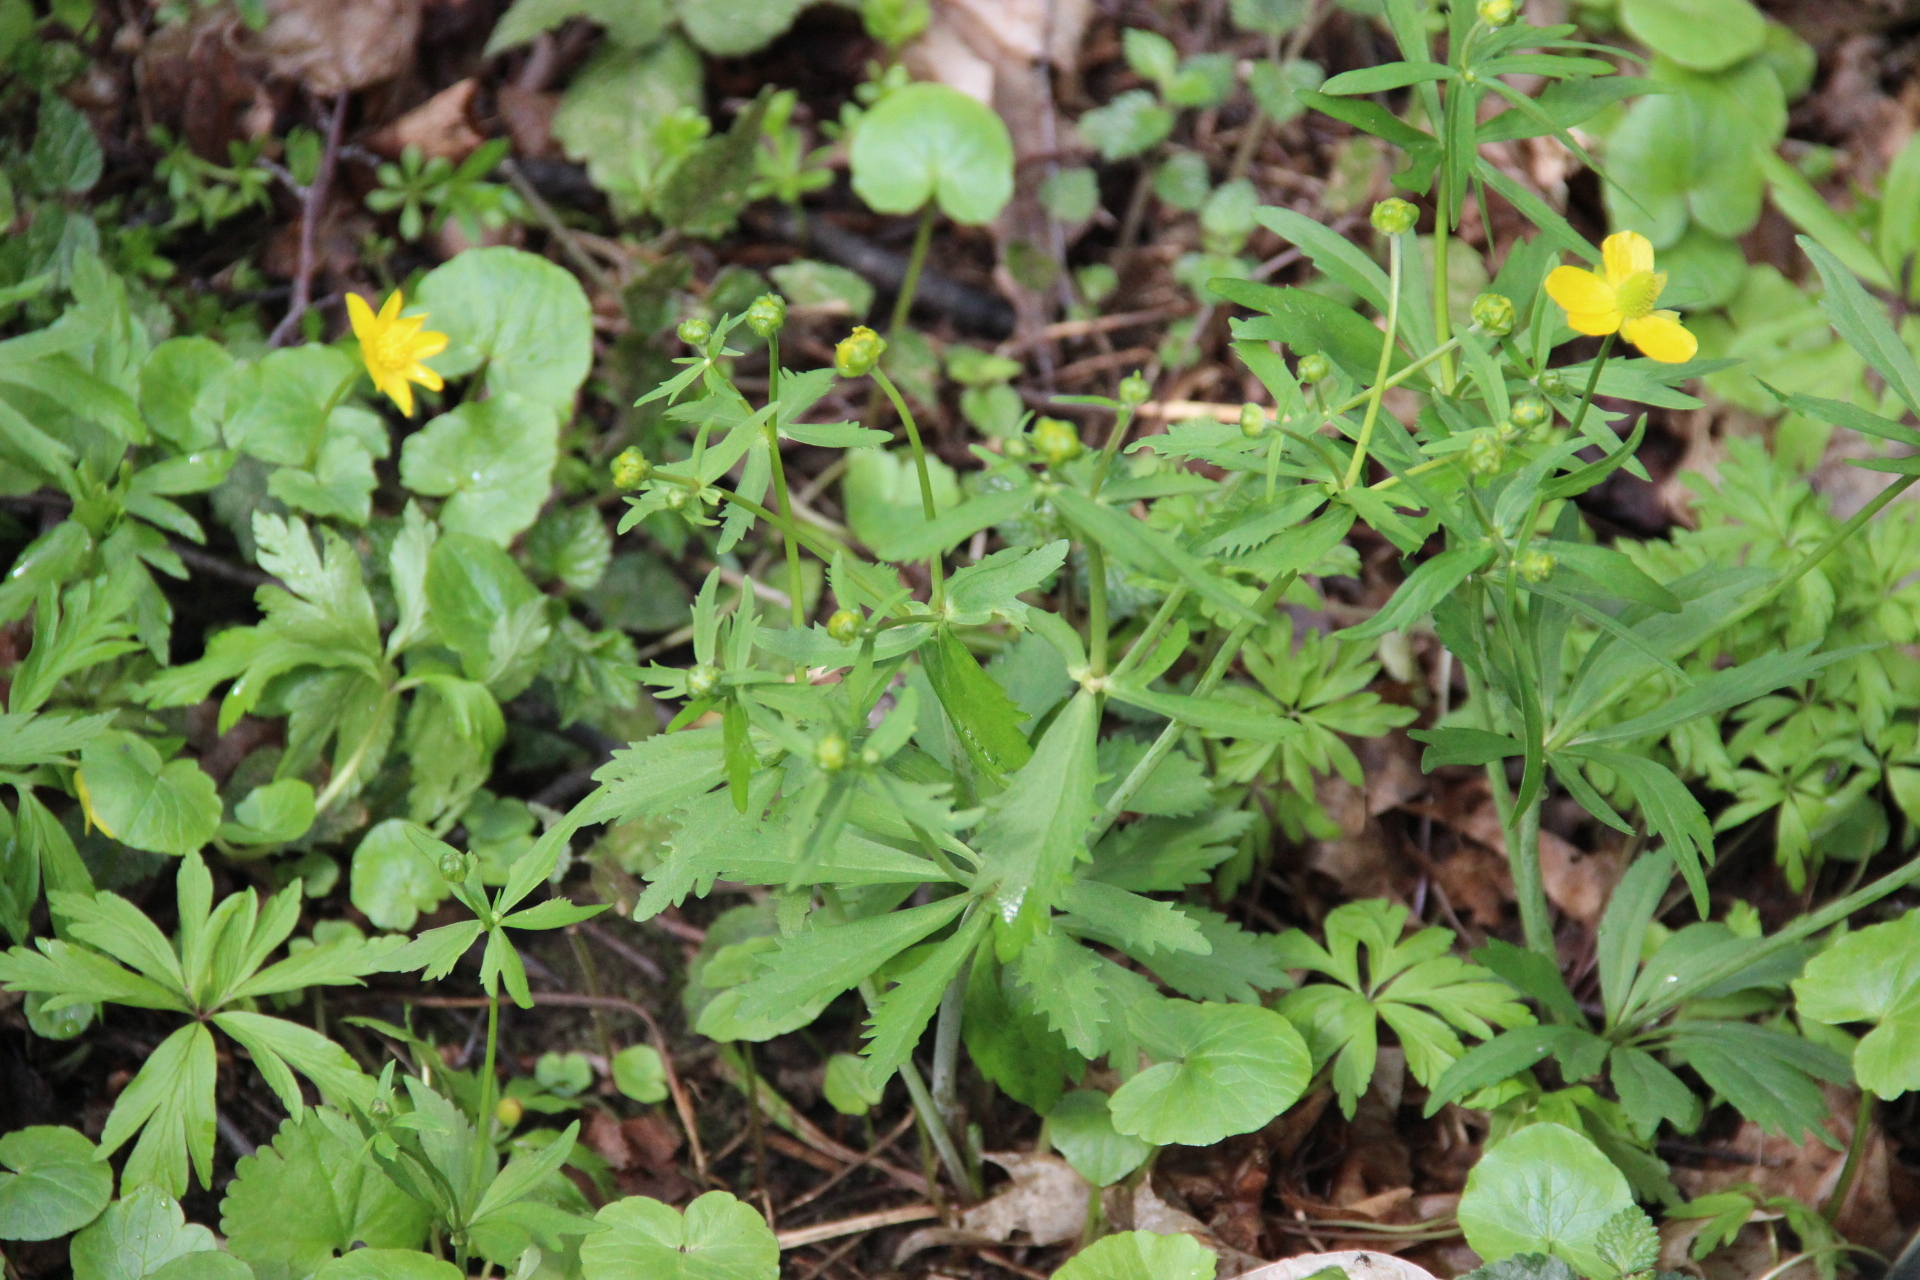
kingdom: Plantae
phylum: Tracheophyta
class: Magnoliopsida
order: Ranunculales
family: Ranunculaceae
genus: Ranunculus
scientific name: Ranunculus cassubicus
